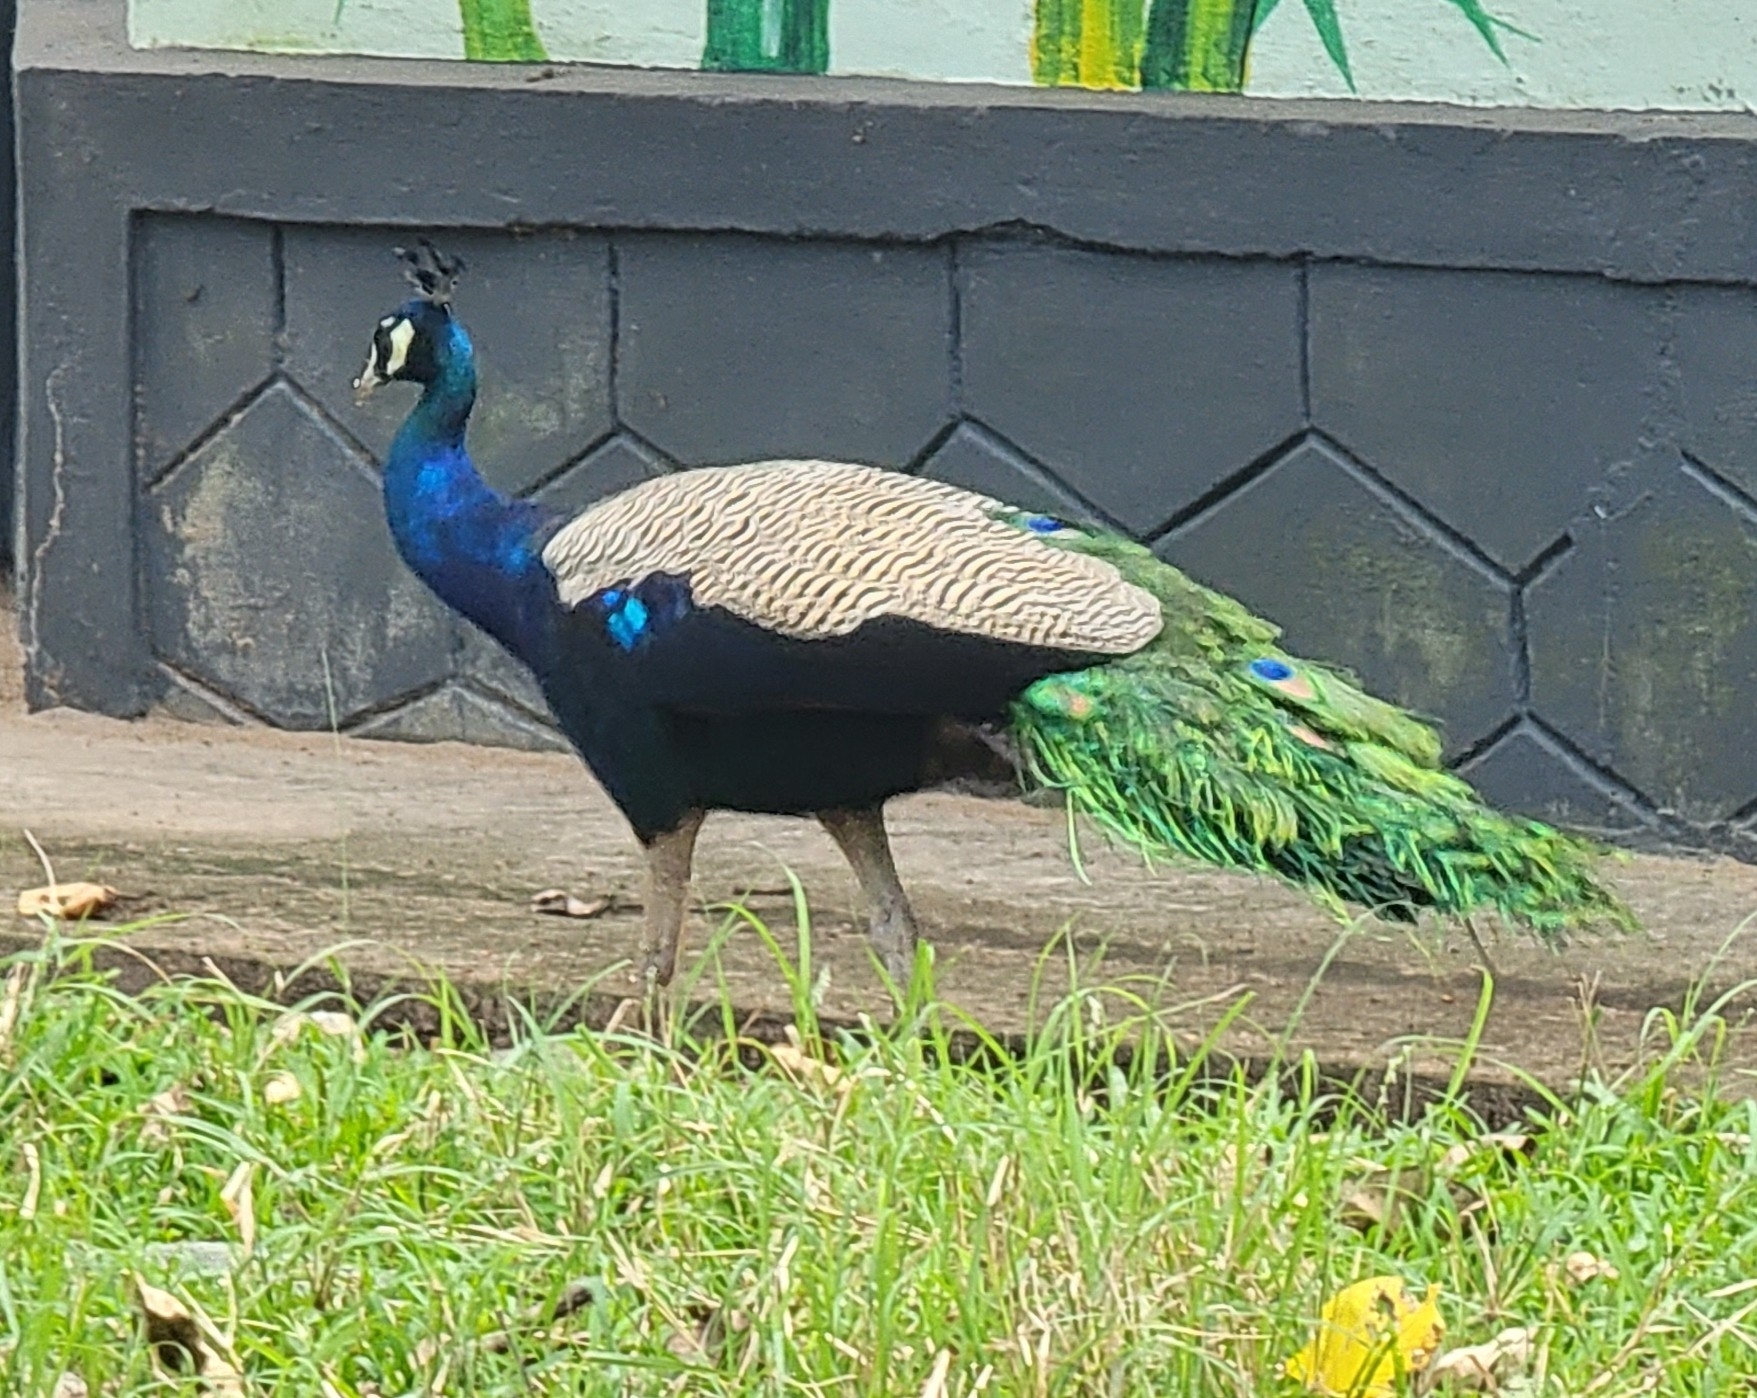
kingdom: Animalia
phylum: Chordata
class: Aves
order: Galliformes
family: Phasianidae
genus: Pavo
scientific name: Pavo cristatus
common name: Indian peafowl
